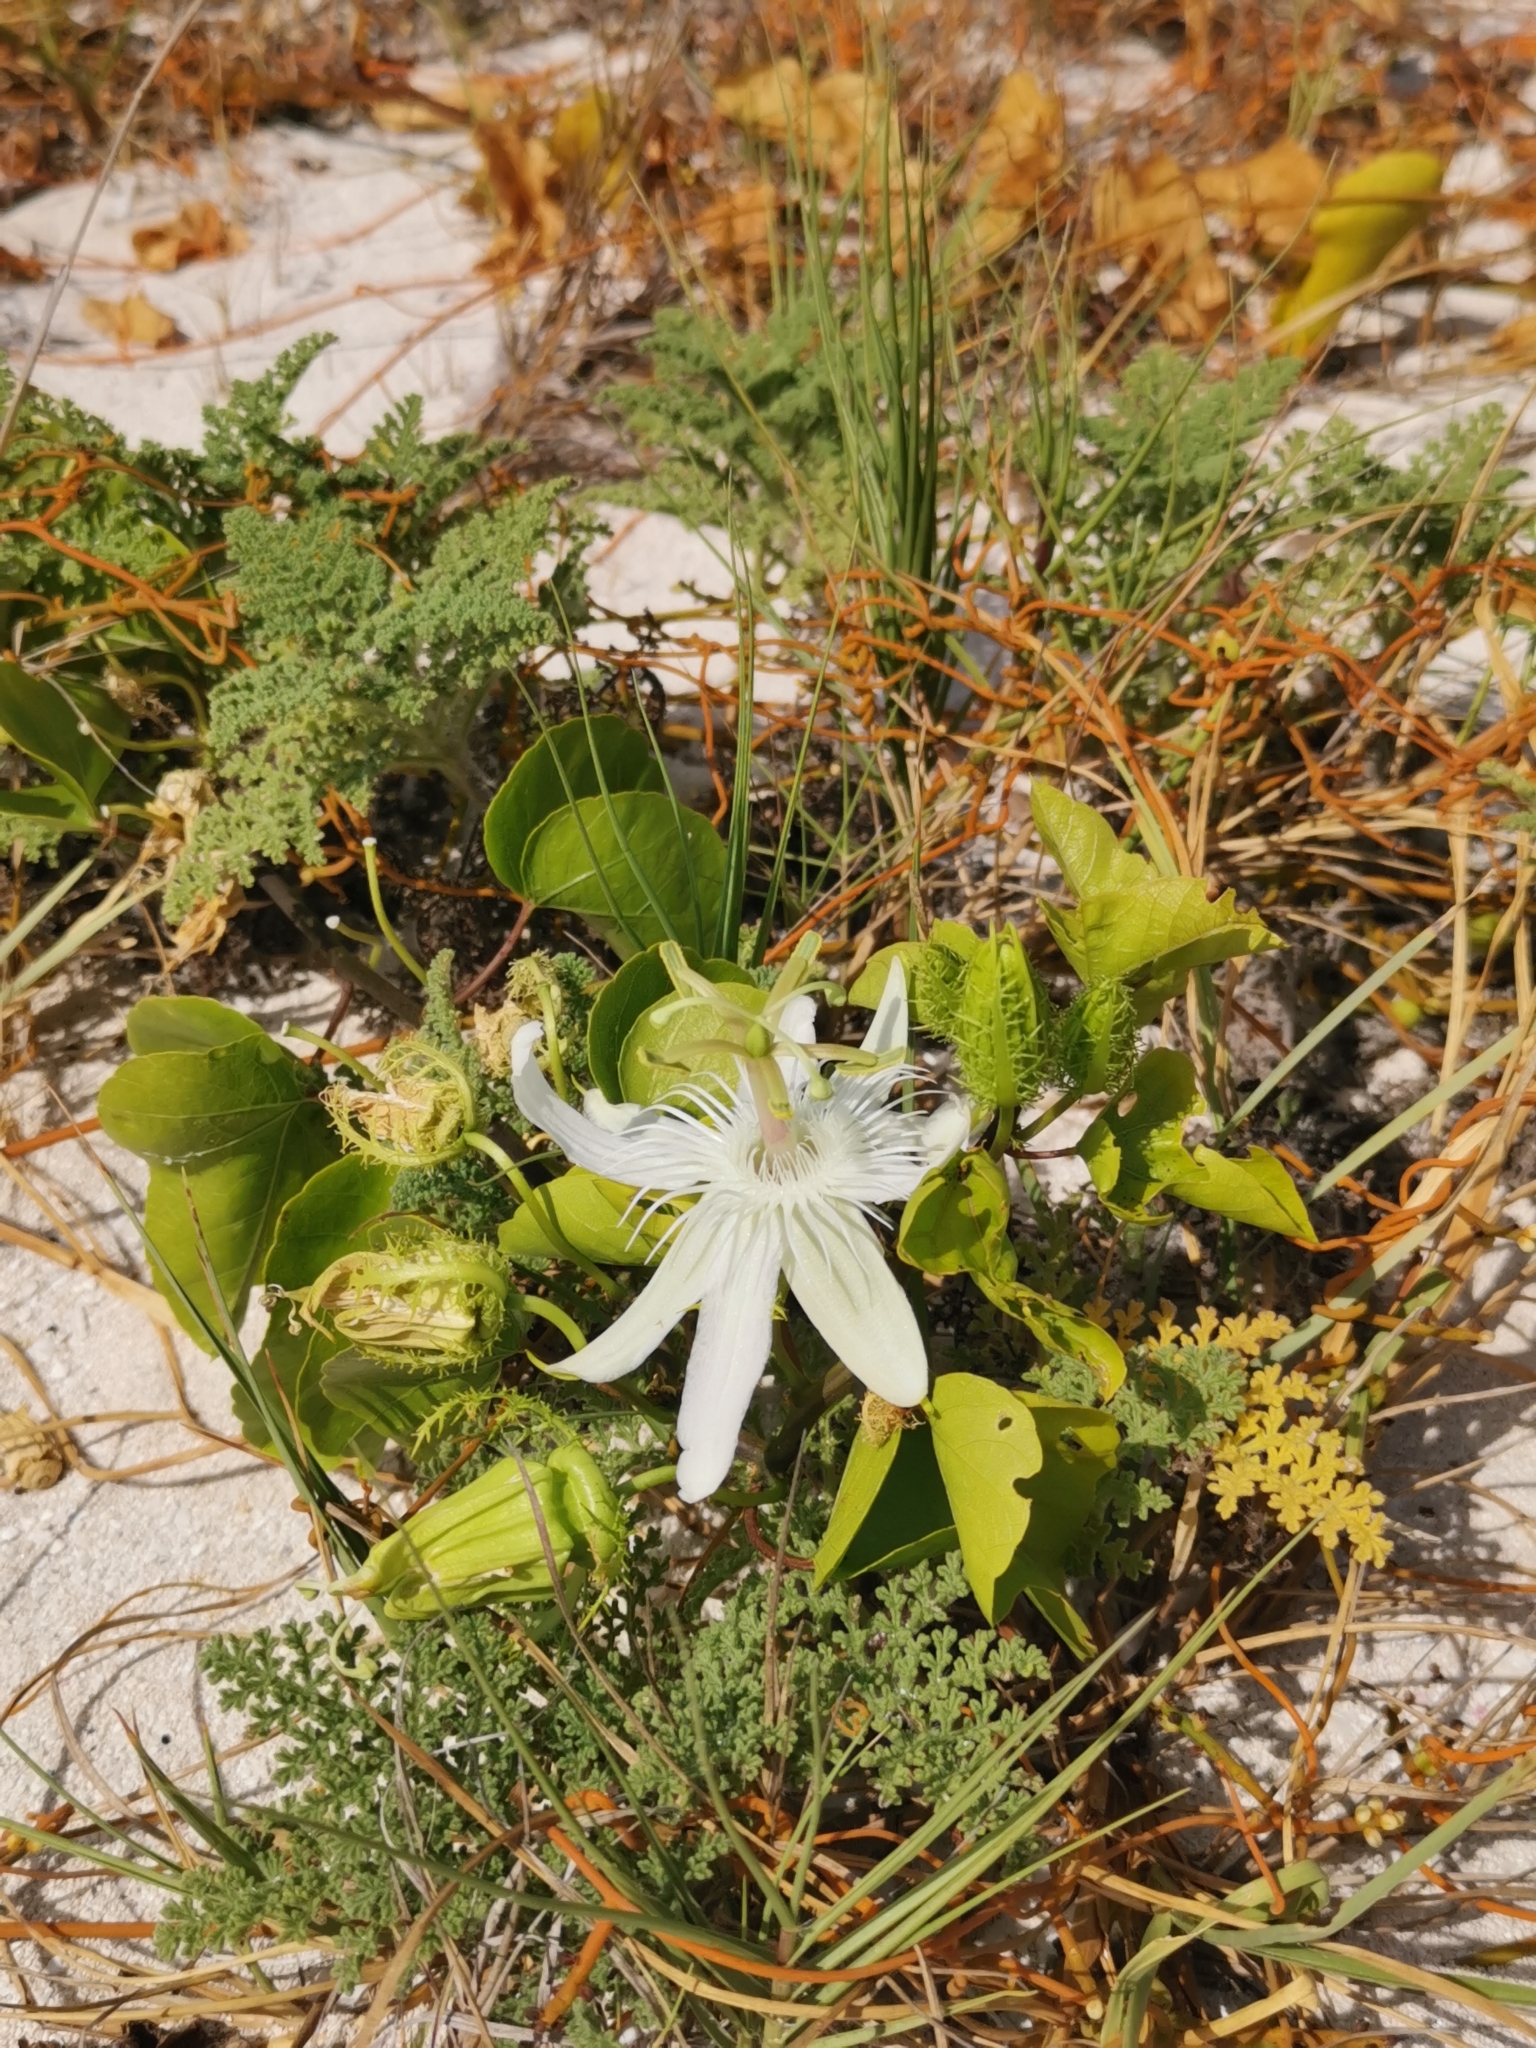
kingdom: Plantae
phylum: Tracheophyta
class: Magnoliopsida
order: Malpighiales
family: Passifloraceae
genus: Passiflora
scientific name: Passiflora pectinata
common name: White passionflower
